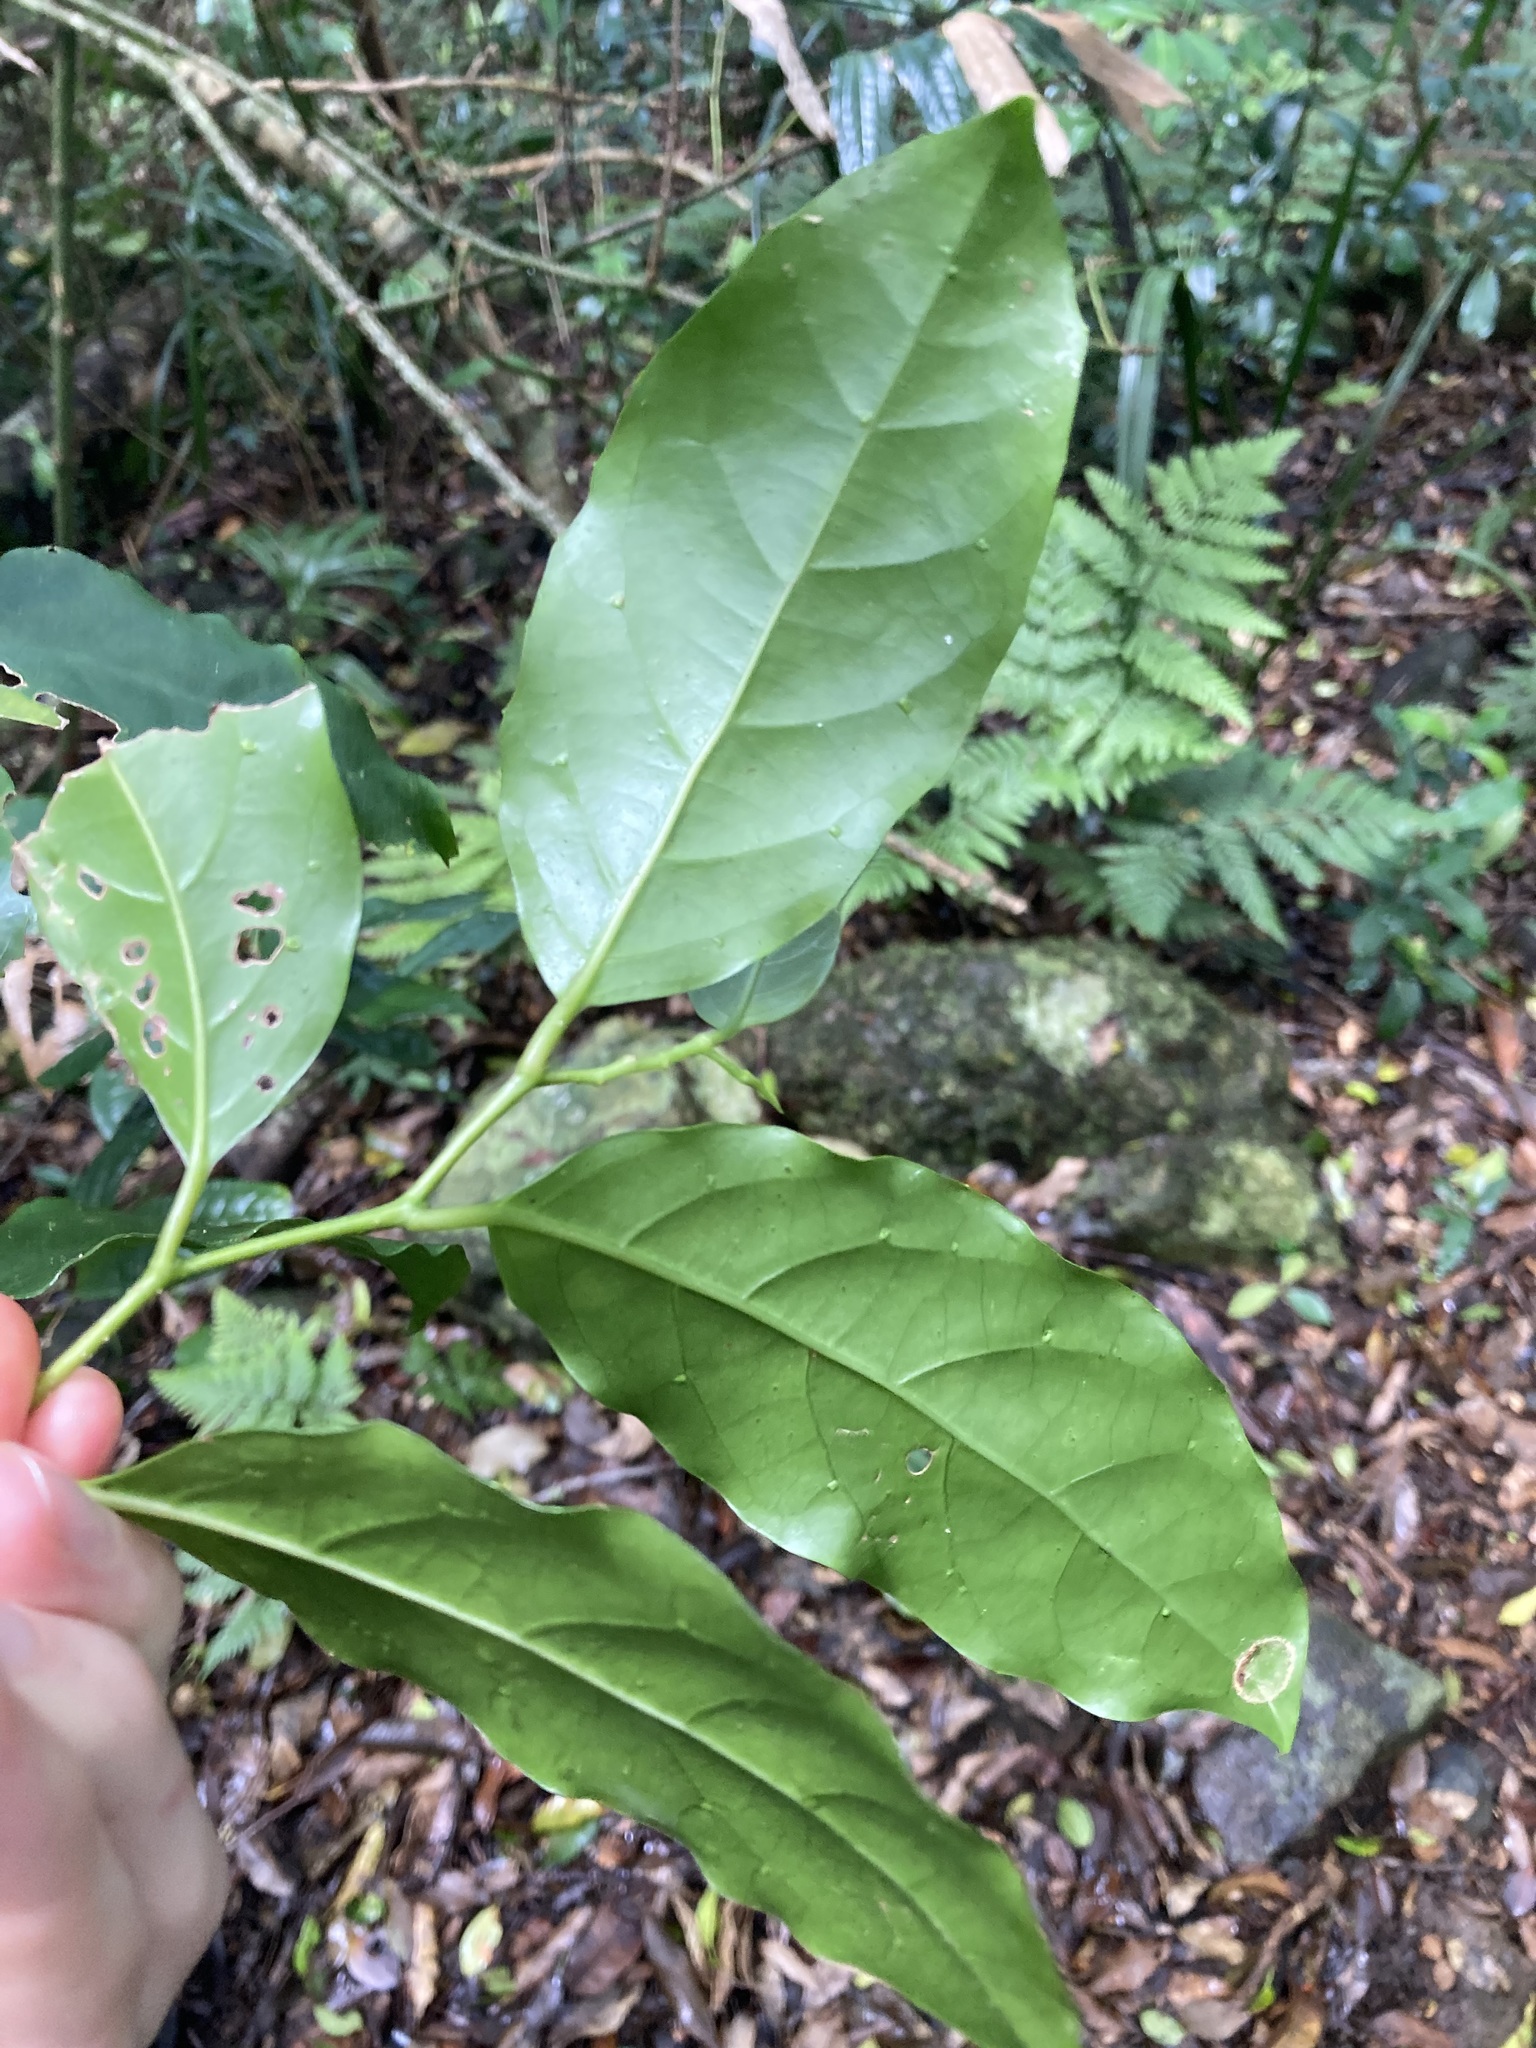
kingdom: Plantae
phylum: Tracheophyta
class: Magnoliopsida
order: Apiales
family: Pennantiaceae
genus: Pennantia
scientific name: Pennantia cunninghamii
